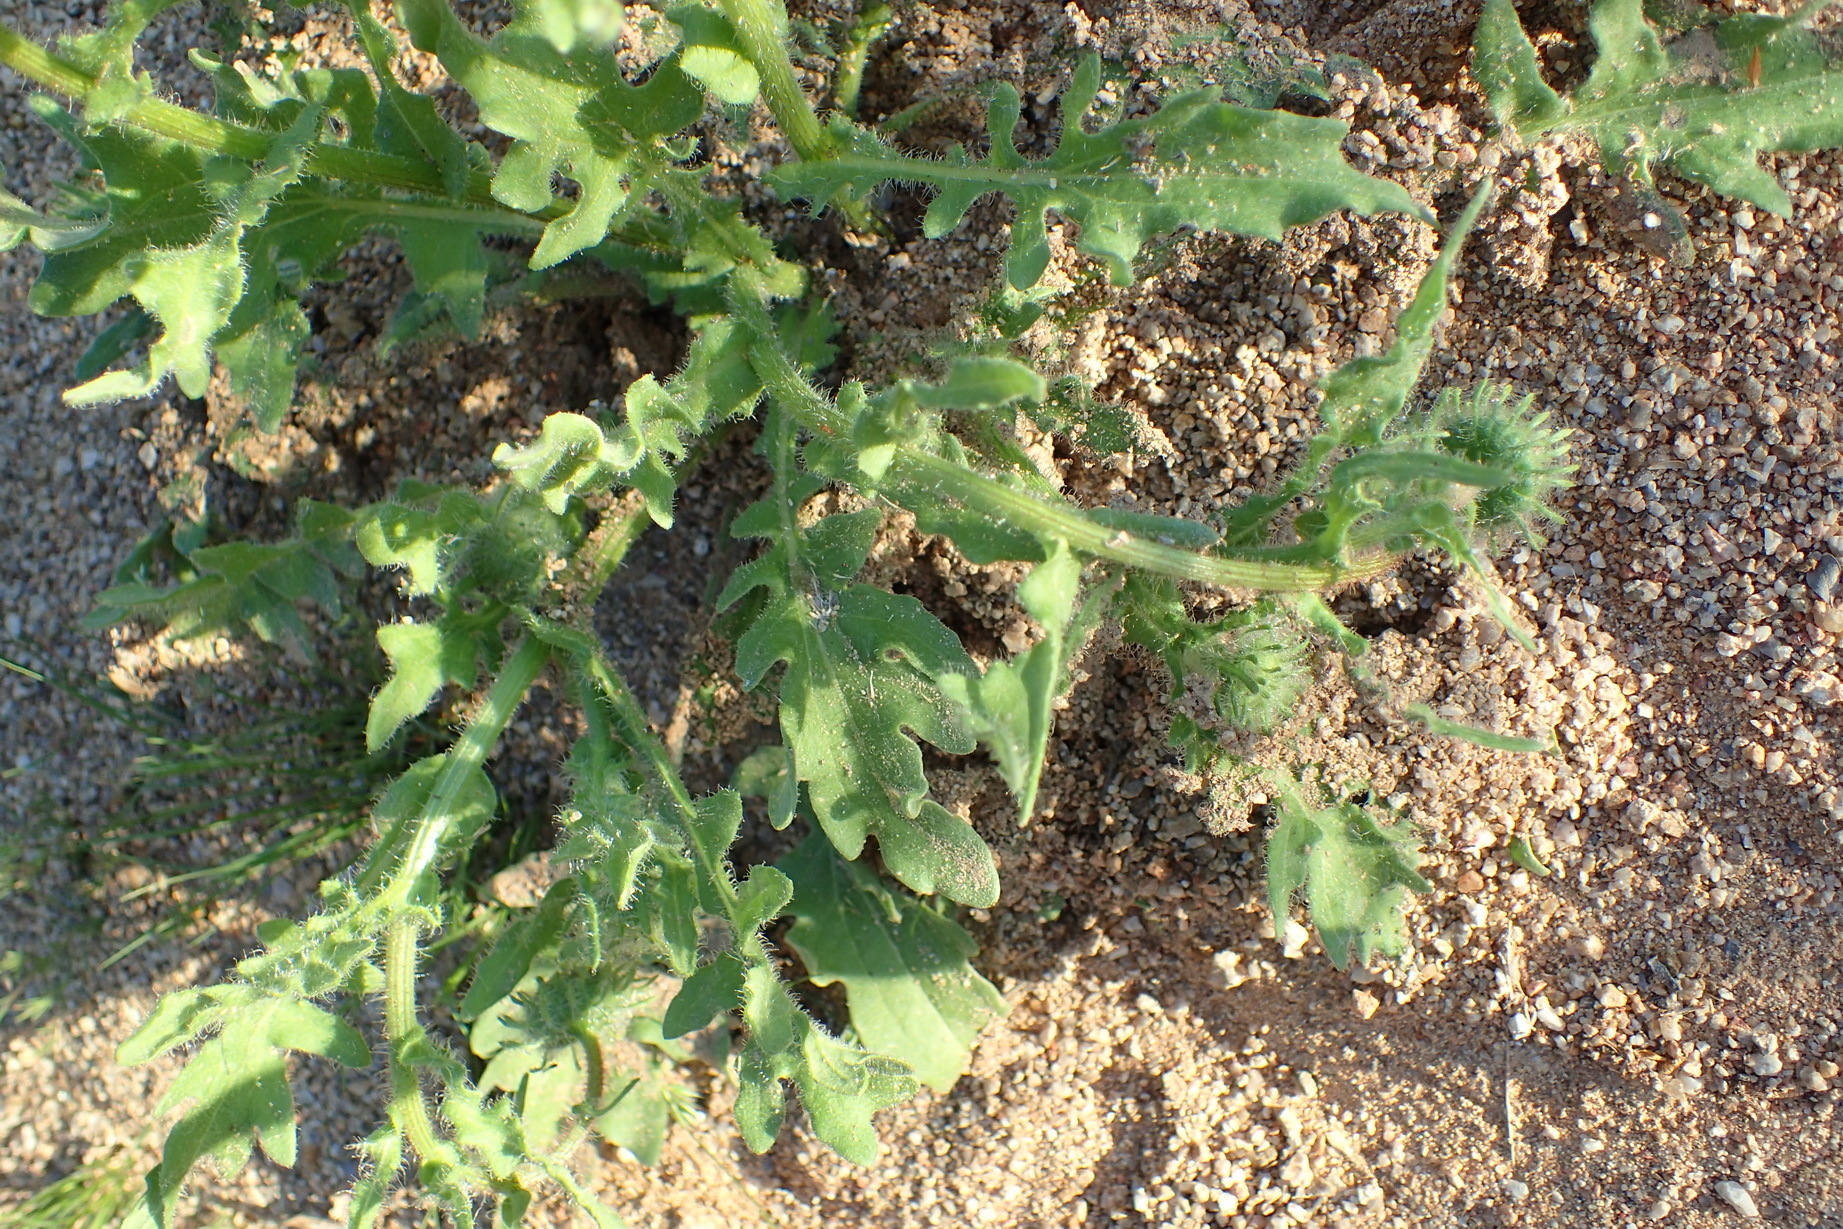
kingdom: Plantae
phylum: Tracheophyta
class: Magnoliopsida
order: Asterales
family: Asteraceae
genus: Arctotis
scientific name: Arctotis fastuosa
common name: Monarch of the veld
